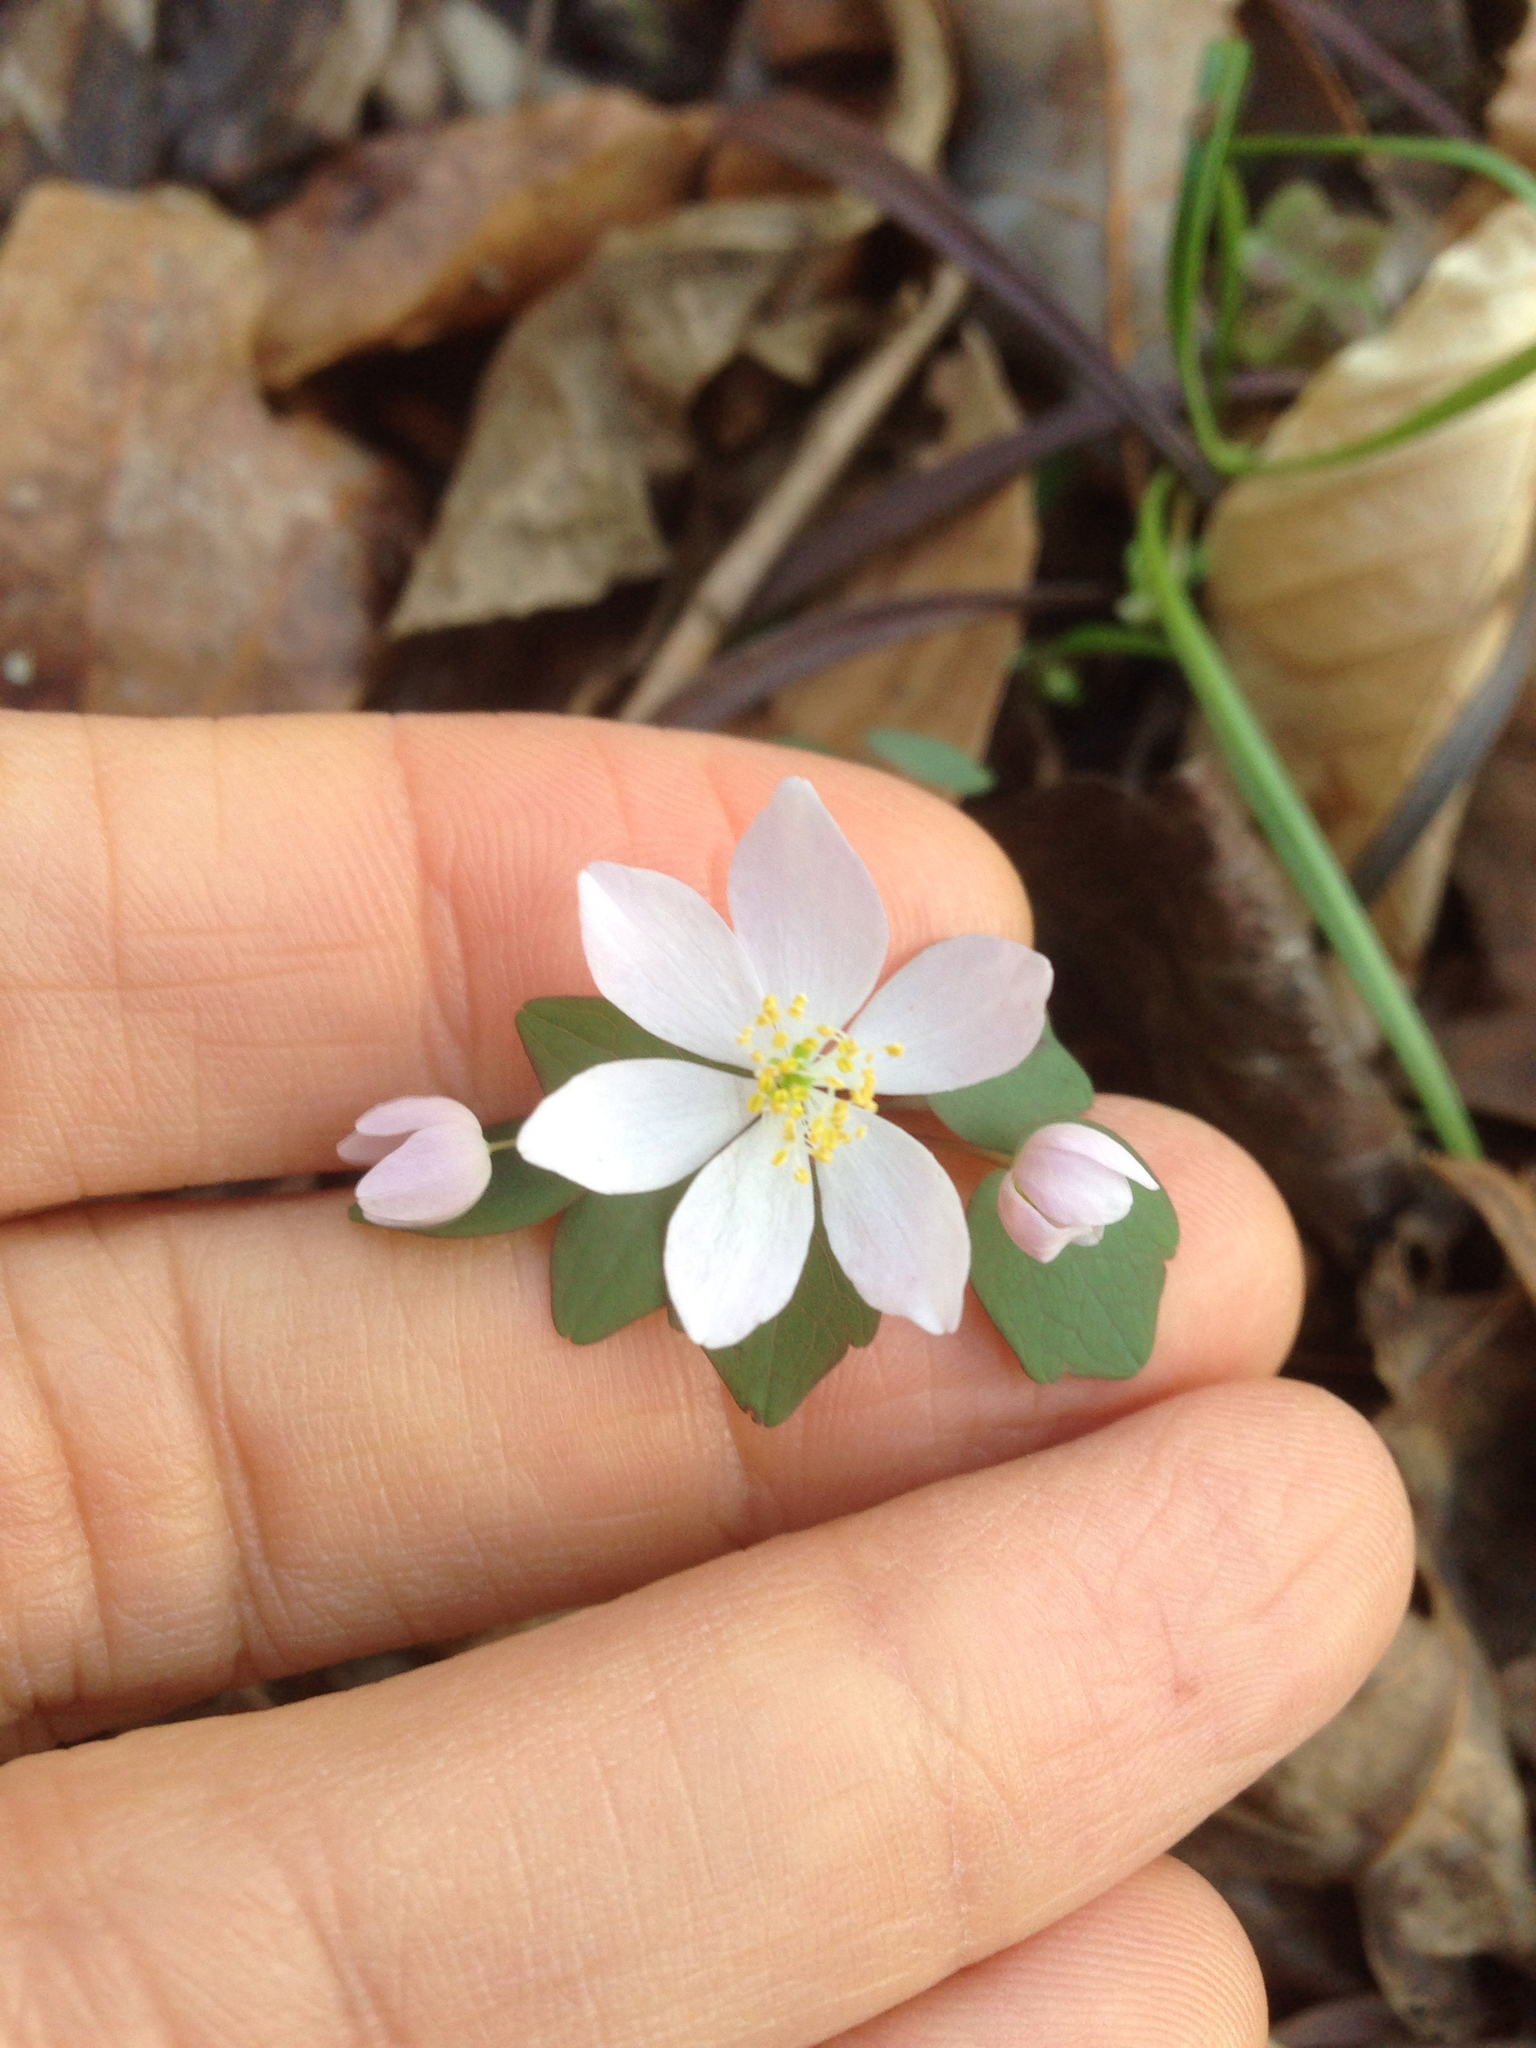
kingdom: Plantae
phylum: Tracheophyta
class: Magnoliopsida
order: Ranunculales
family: Ranunculaceae
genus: Thalictrum
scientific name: Thalictrum thalictroides
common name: Rue-anemone
